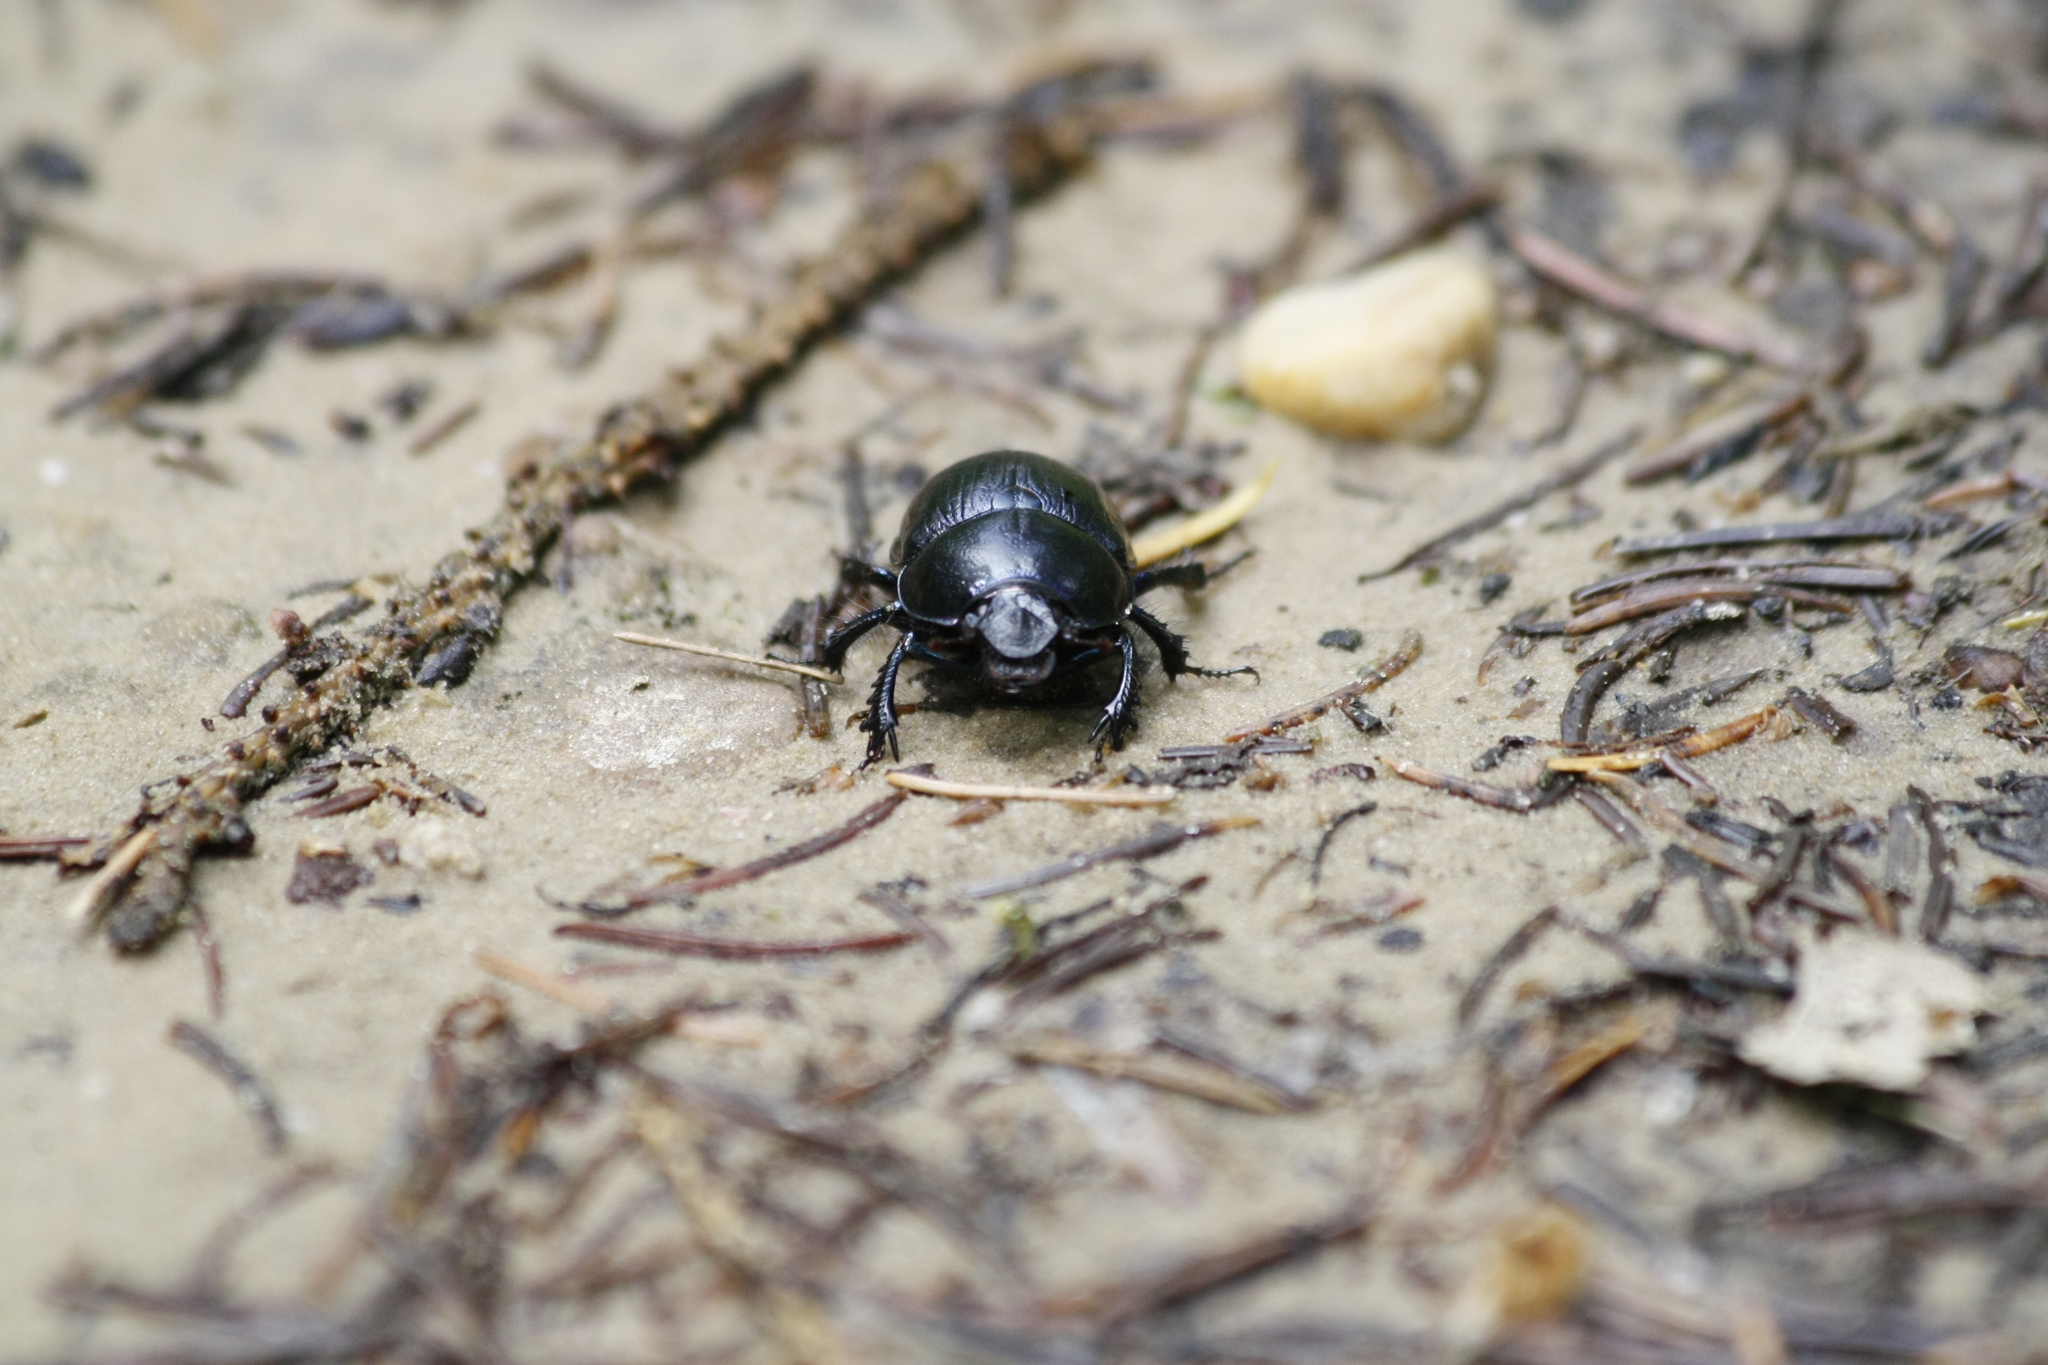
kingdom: Animalia
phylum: Arthropoda
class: Insecta
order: Coleoptera
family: Geotrupidae
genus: Anoplotrupes
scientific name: Anoplotrupes stercorosus
